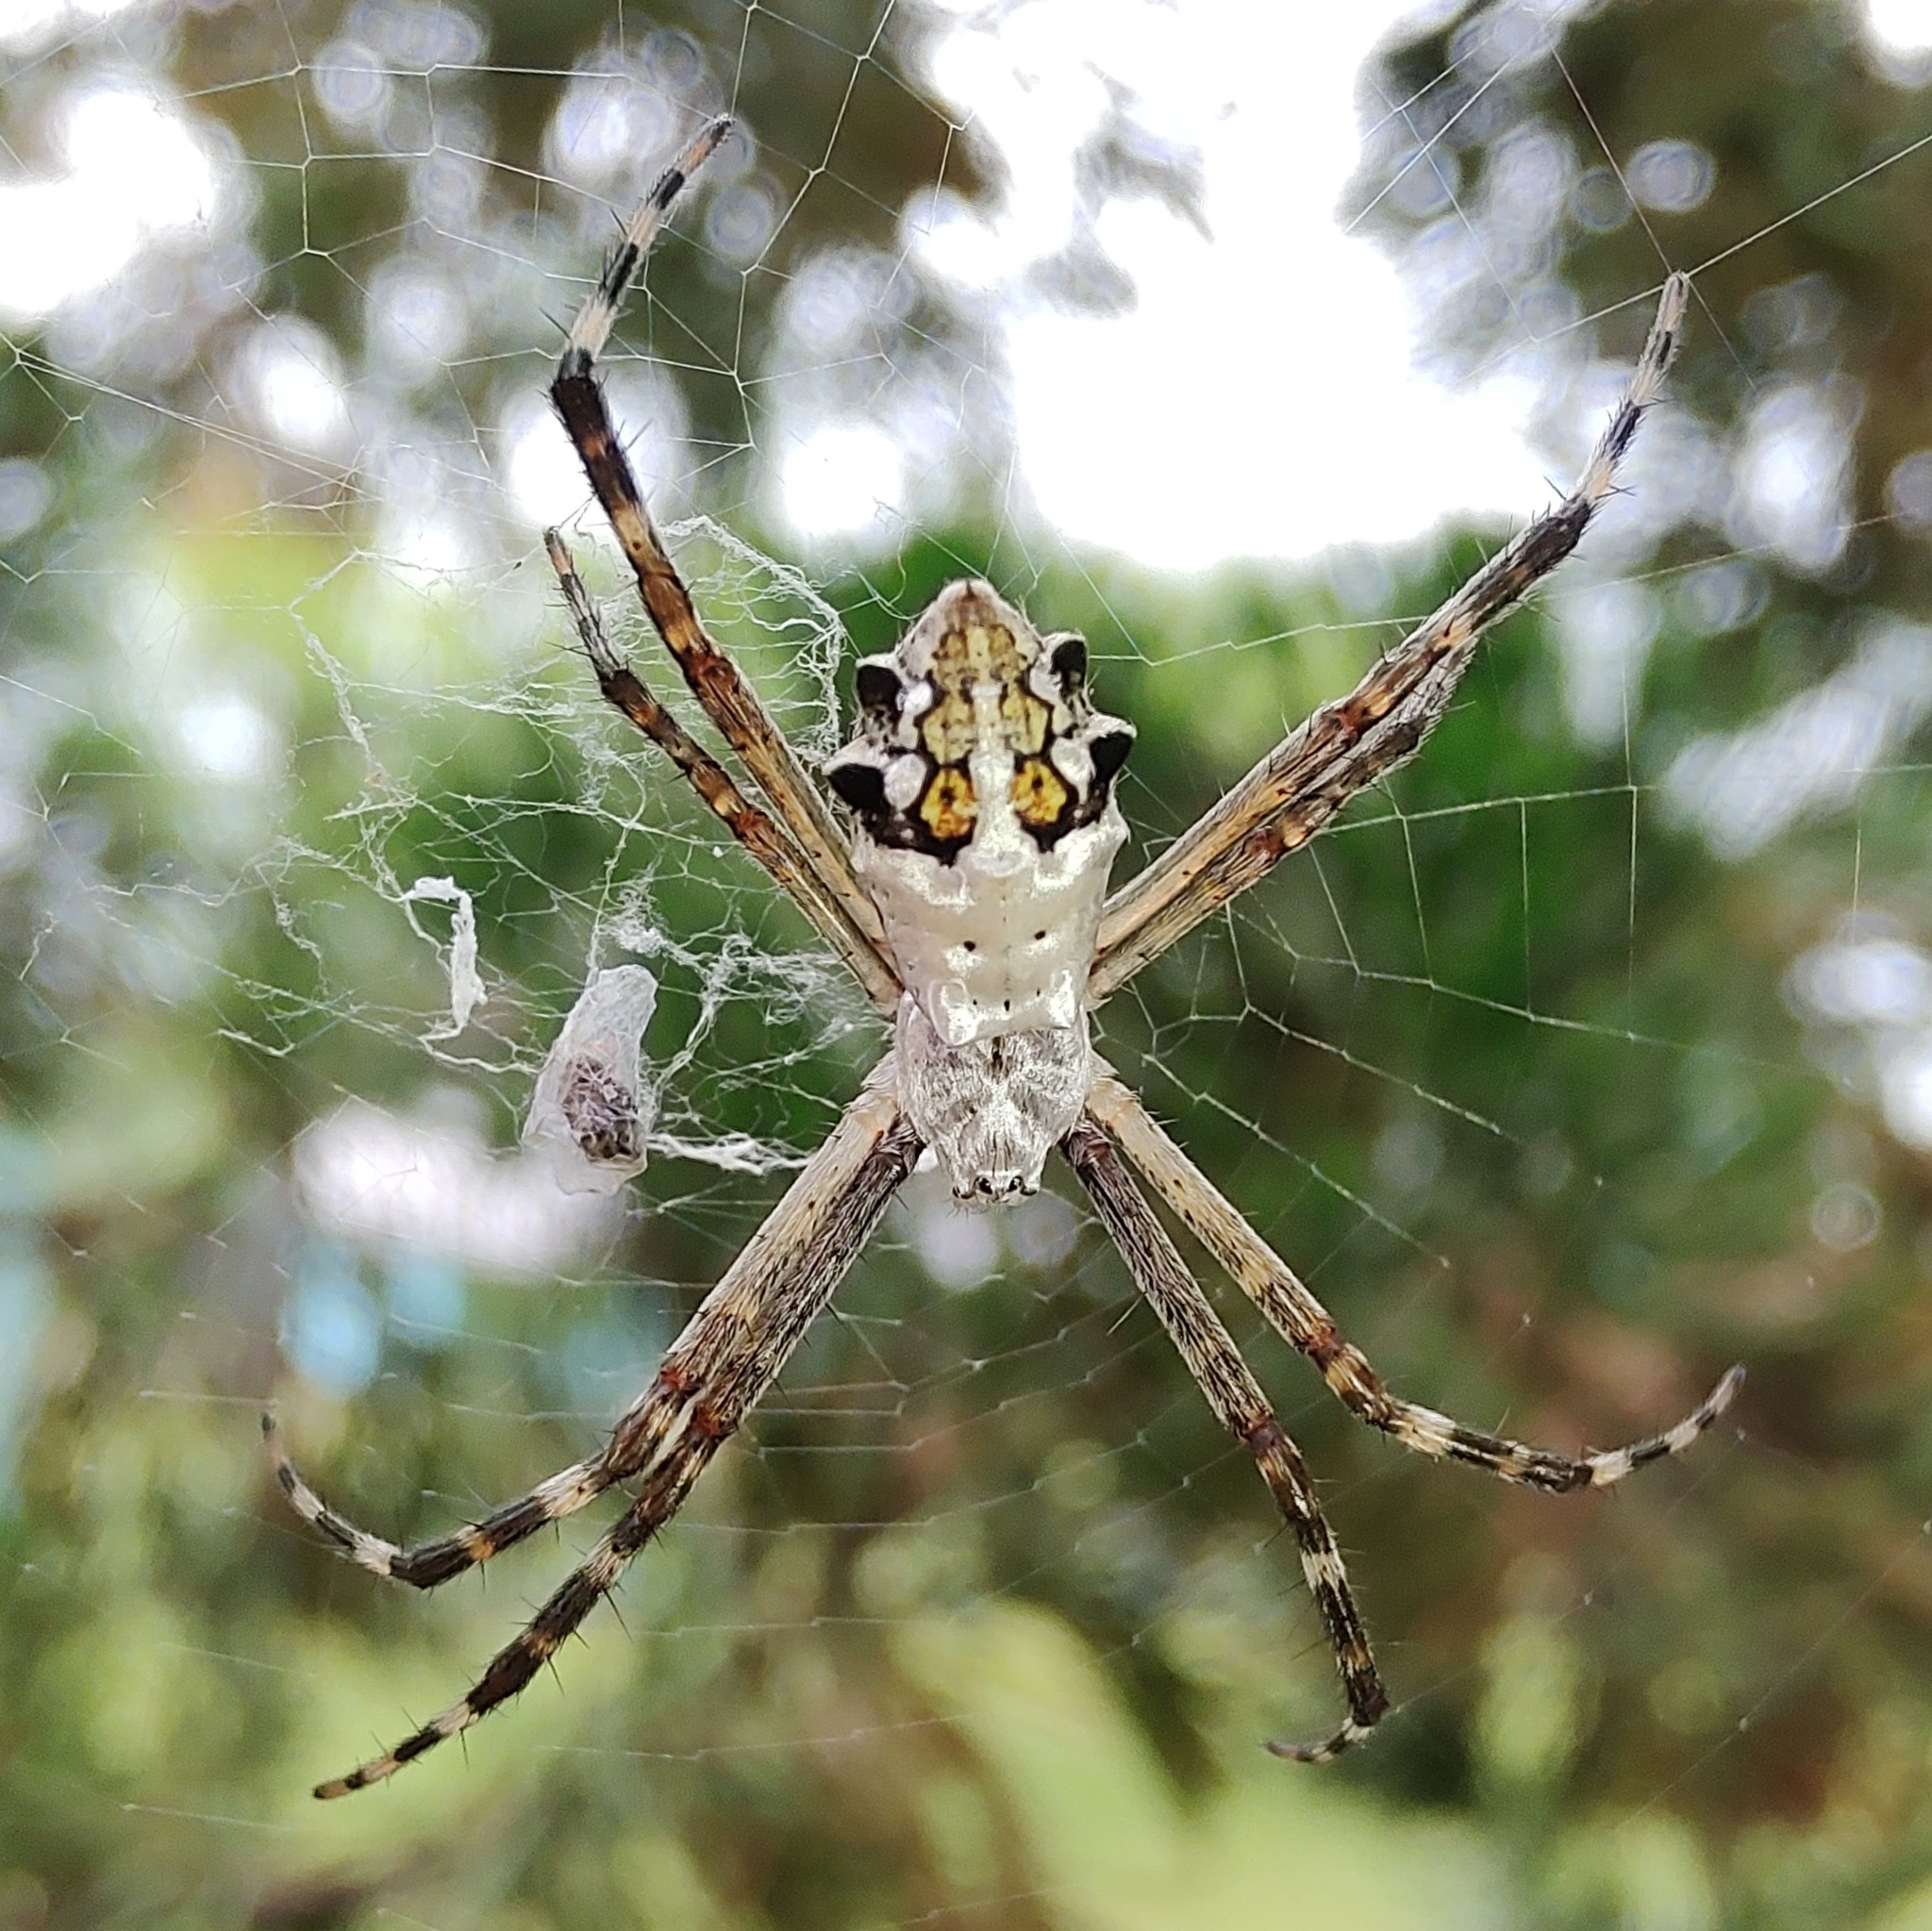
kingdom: Animalia
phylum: Arthropoda
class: Arachnida
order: Araneae
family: Araneidae
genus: Argiope
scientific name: Argiope argentata
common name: Orb weavers
